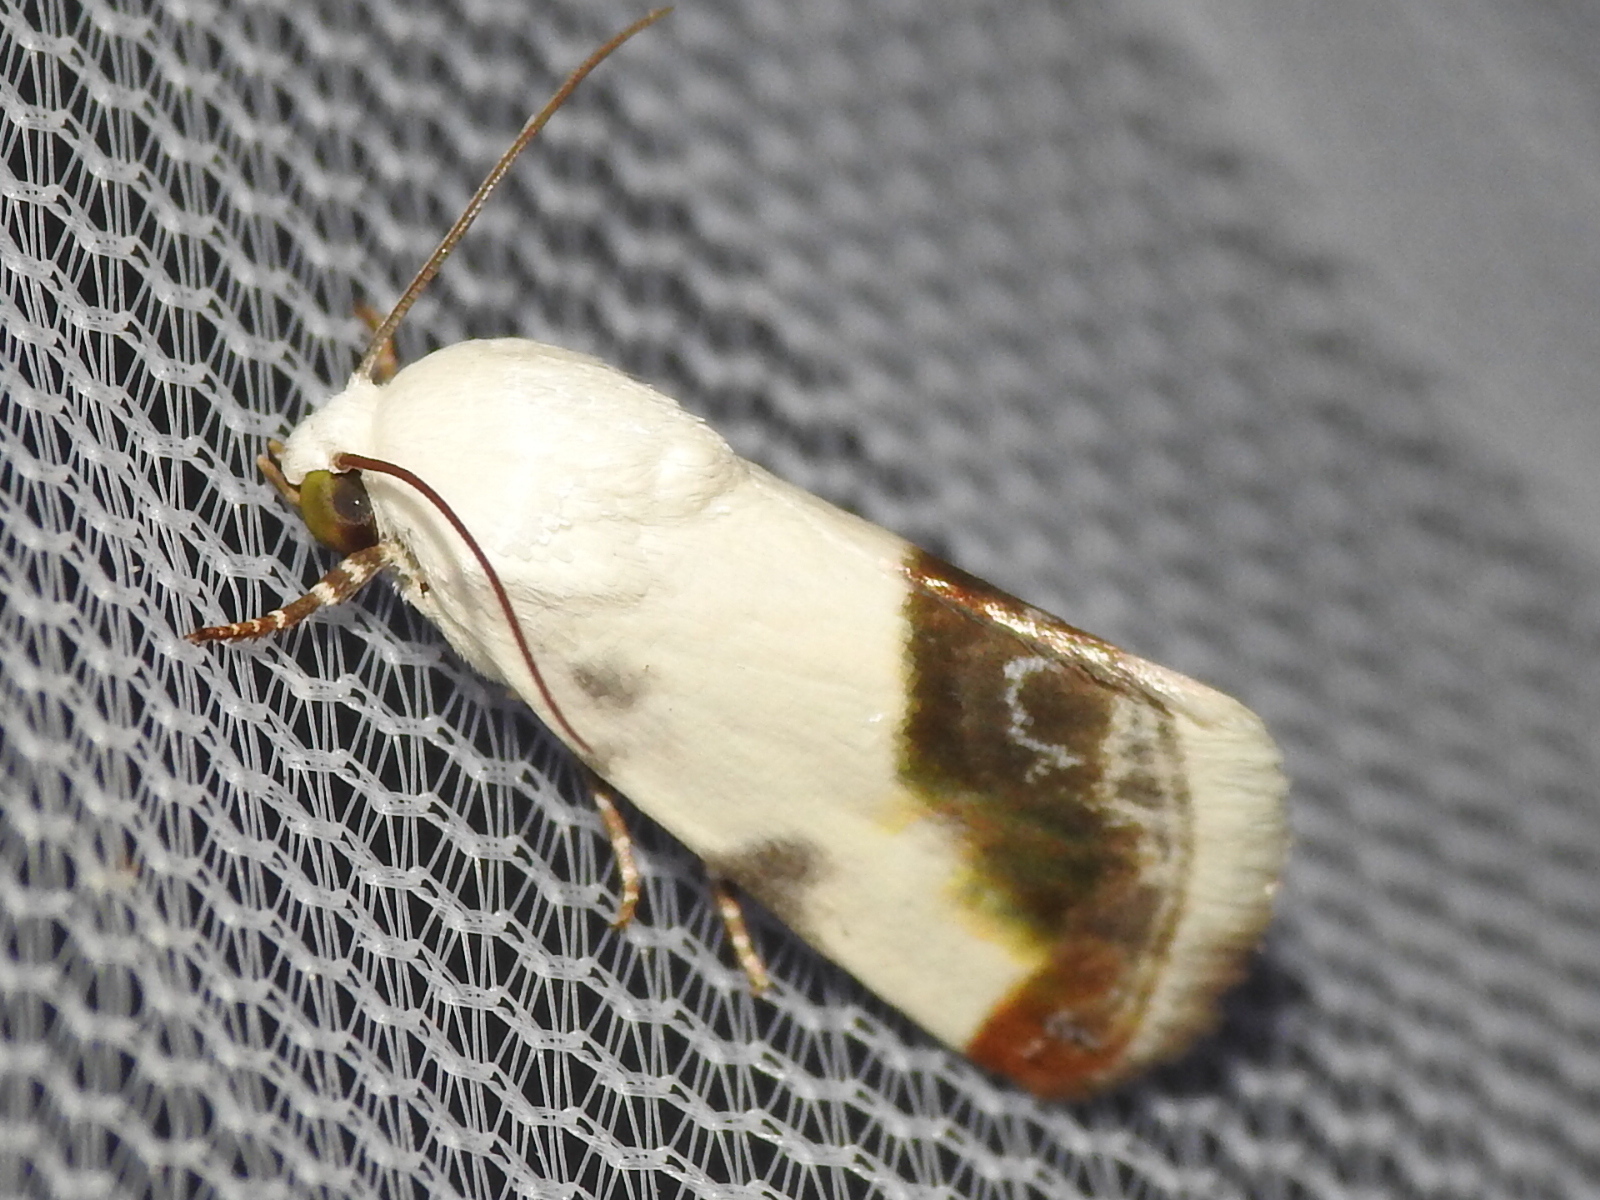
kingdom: Animalia
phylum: Arthropoda
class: Insecta
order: Lepidoptera
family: Noctuidae
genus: Acontia
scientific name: Acontia cretata
